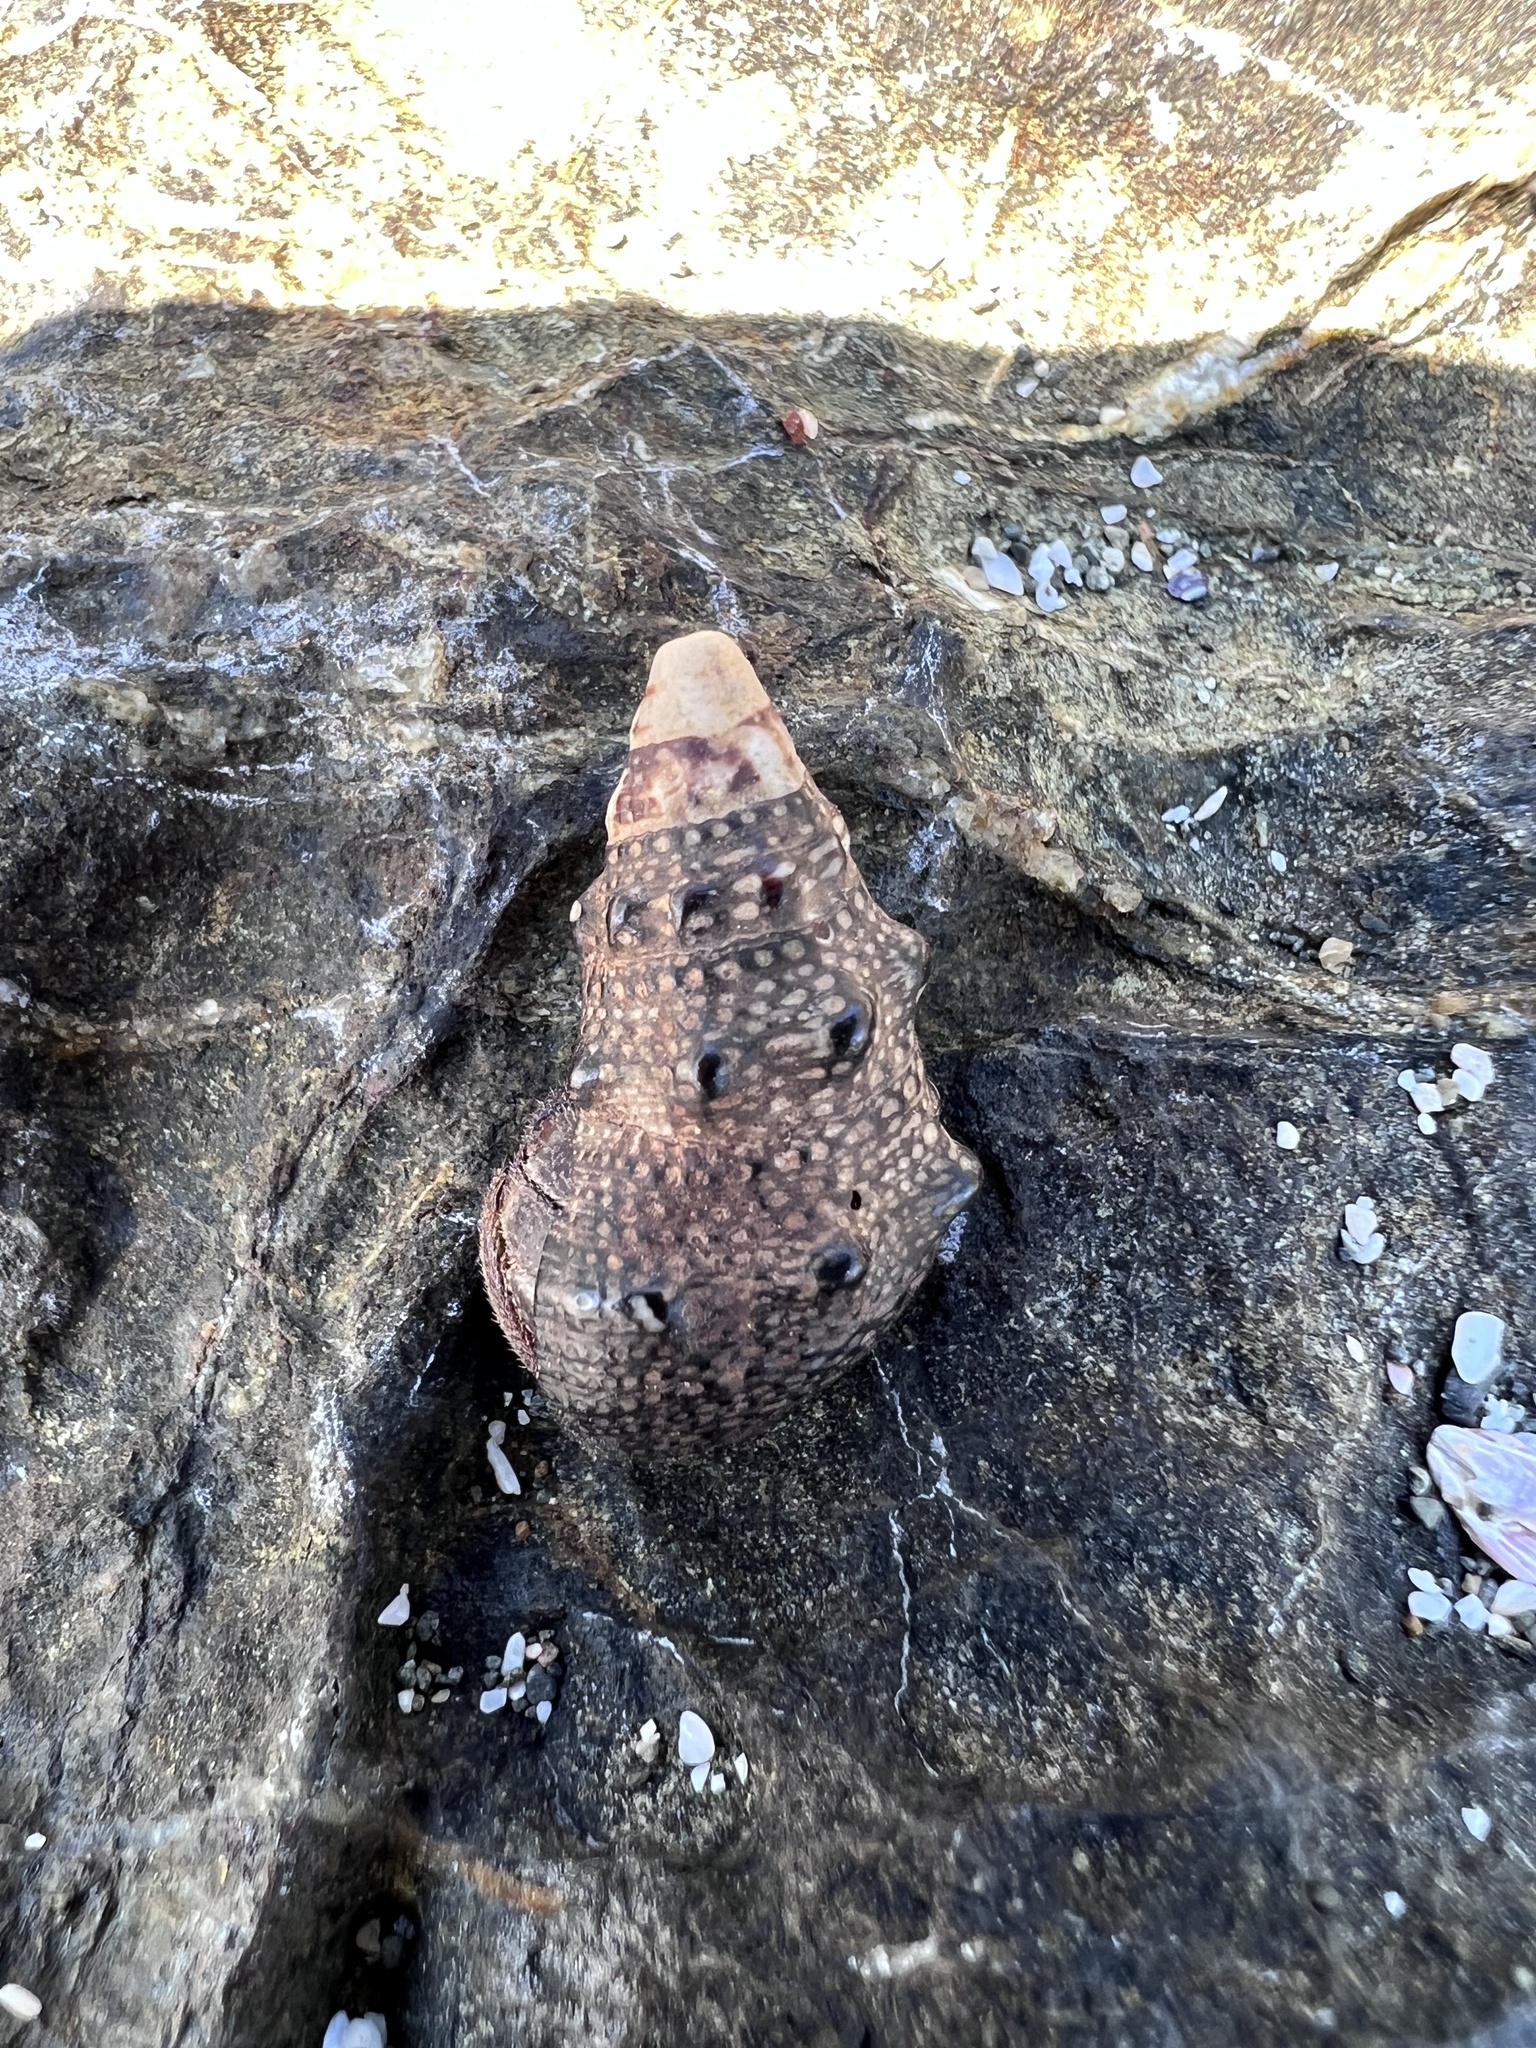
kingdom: Animalia
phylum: Mollusca
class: Gastropoda
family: Cerithiidae
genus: Cerithium
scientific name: Cerithium stercusmuscarum
